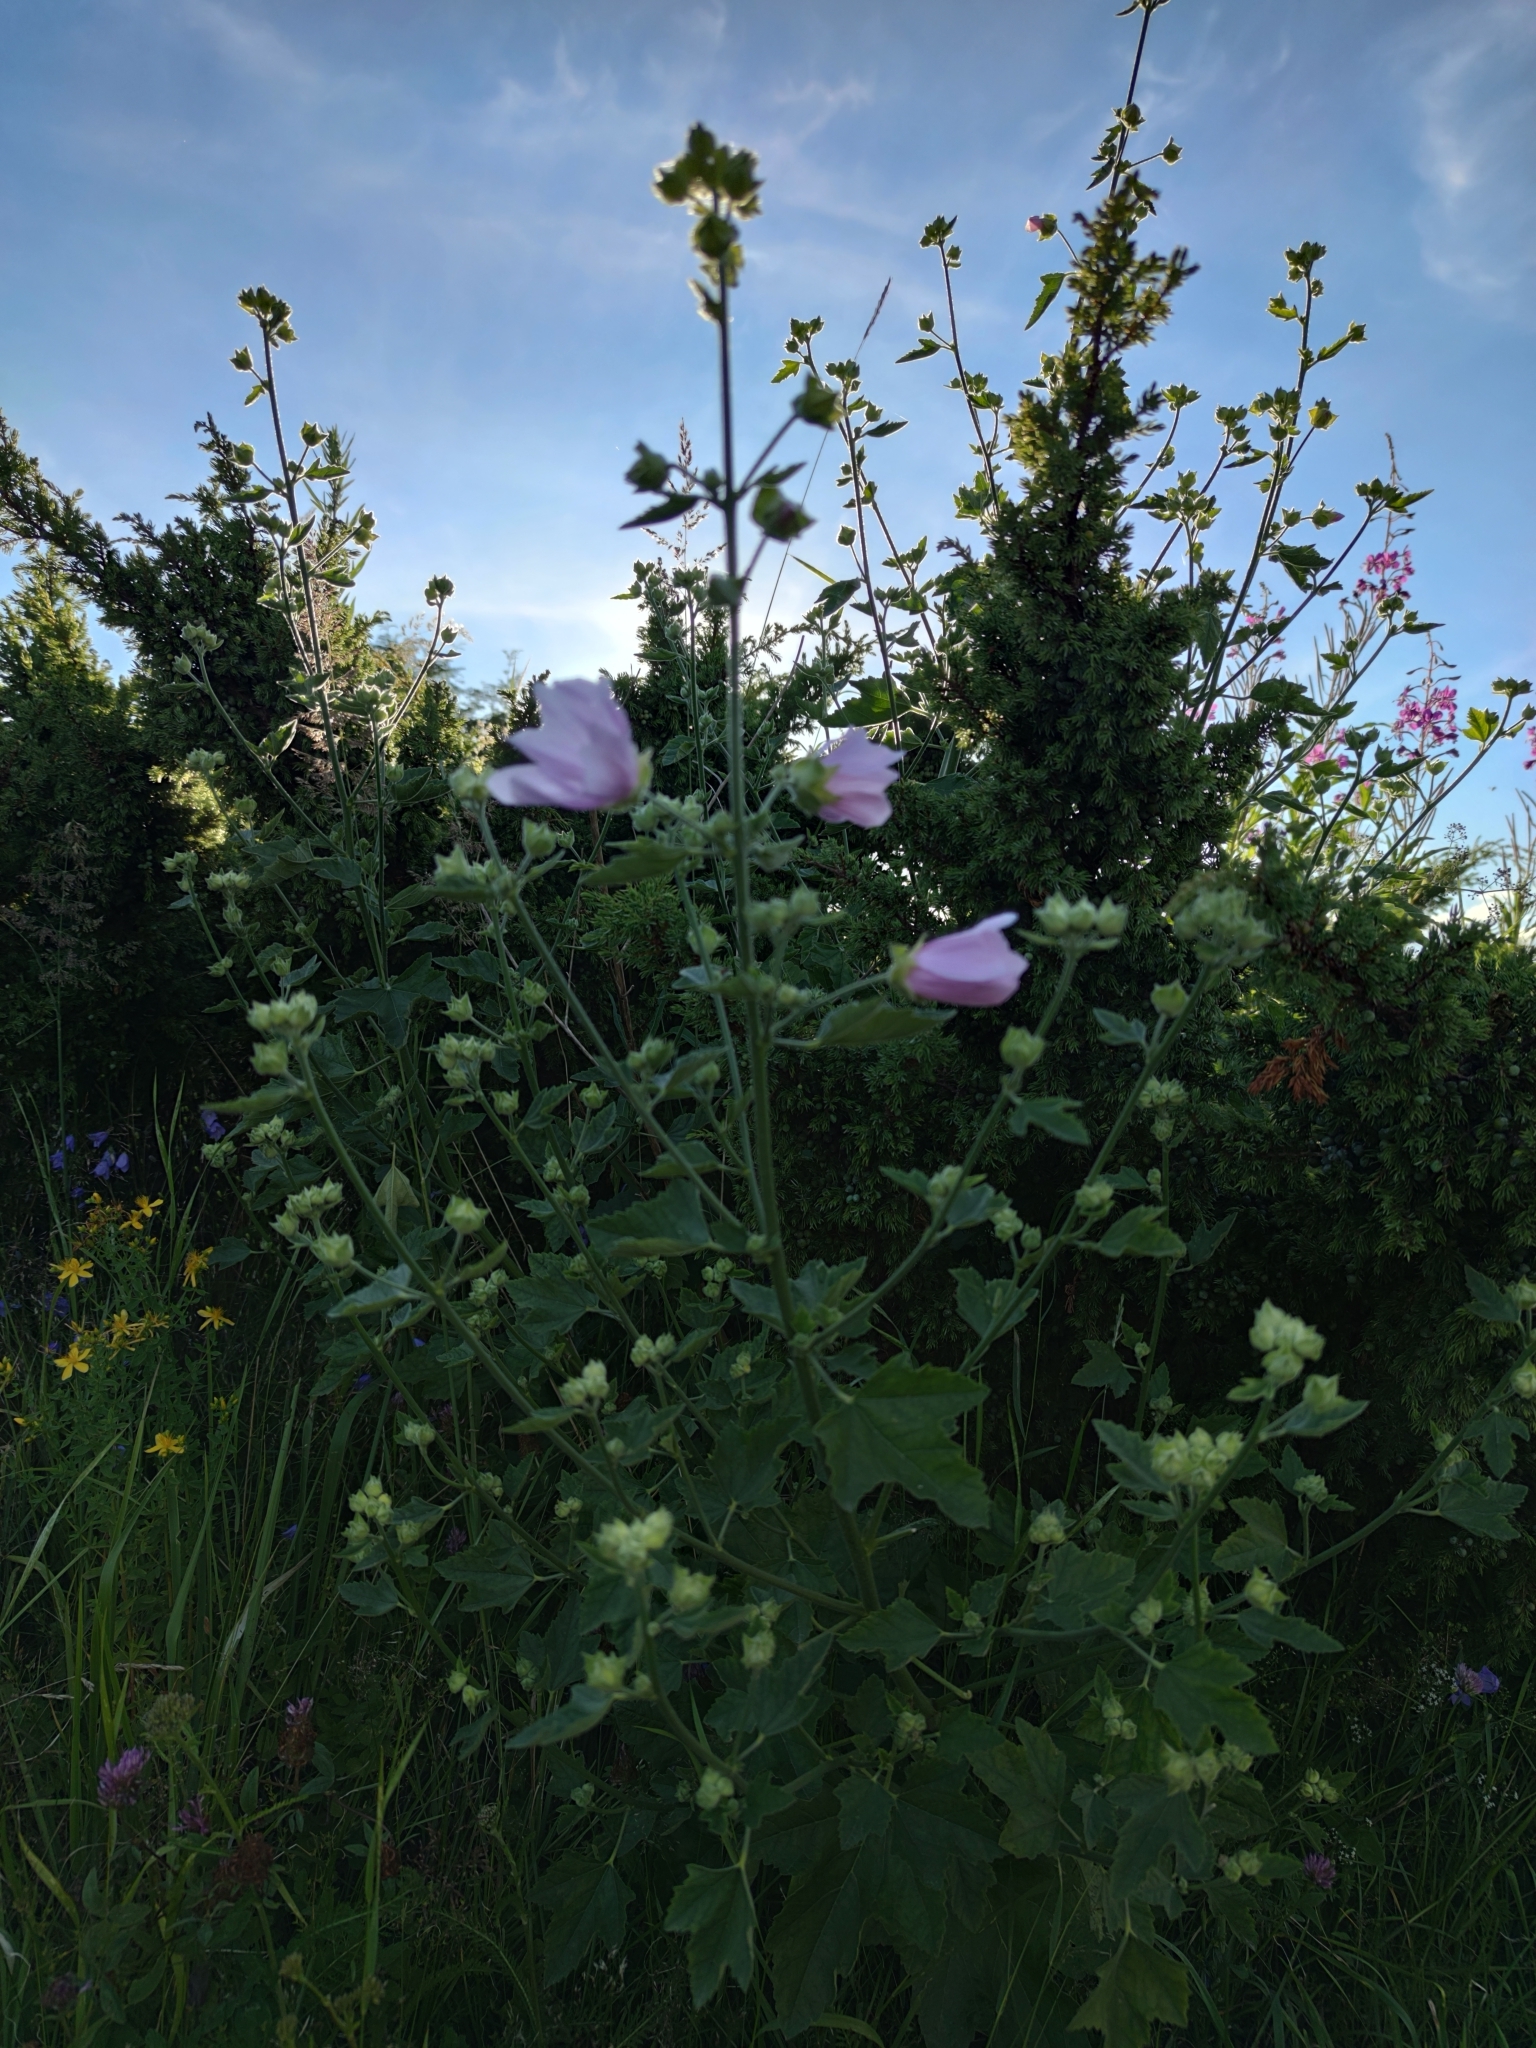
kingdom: Plantae
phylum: Tracheophyta
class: Magnoliopsida
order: Malvales
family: Malvaceae
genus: Malva
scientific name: Malva thuringiaca
